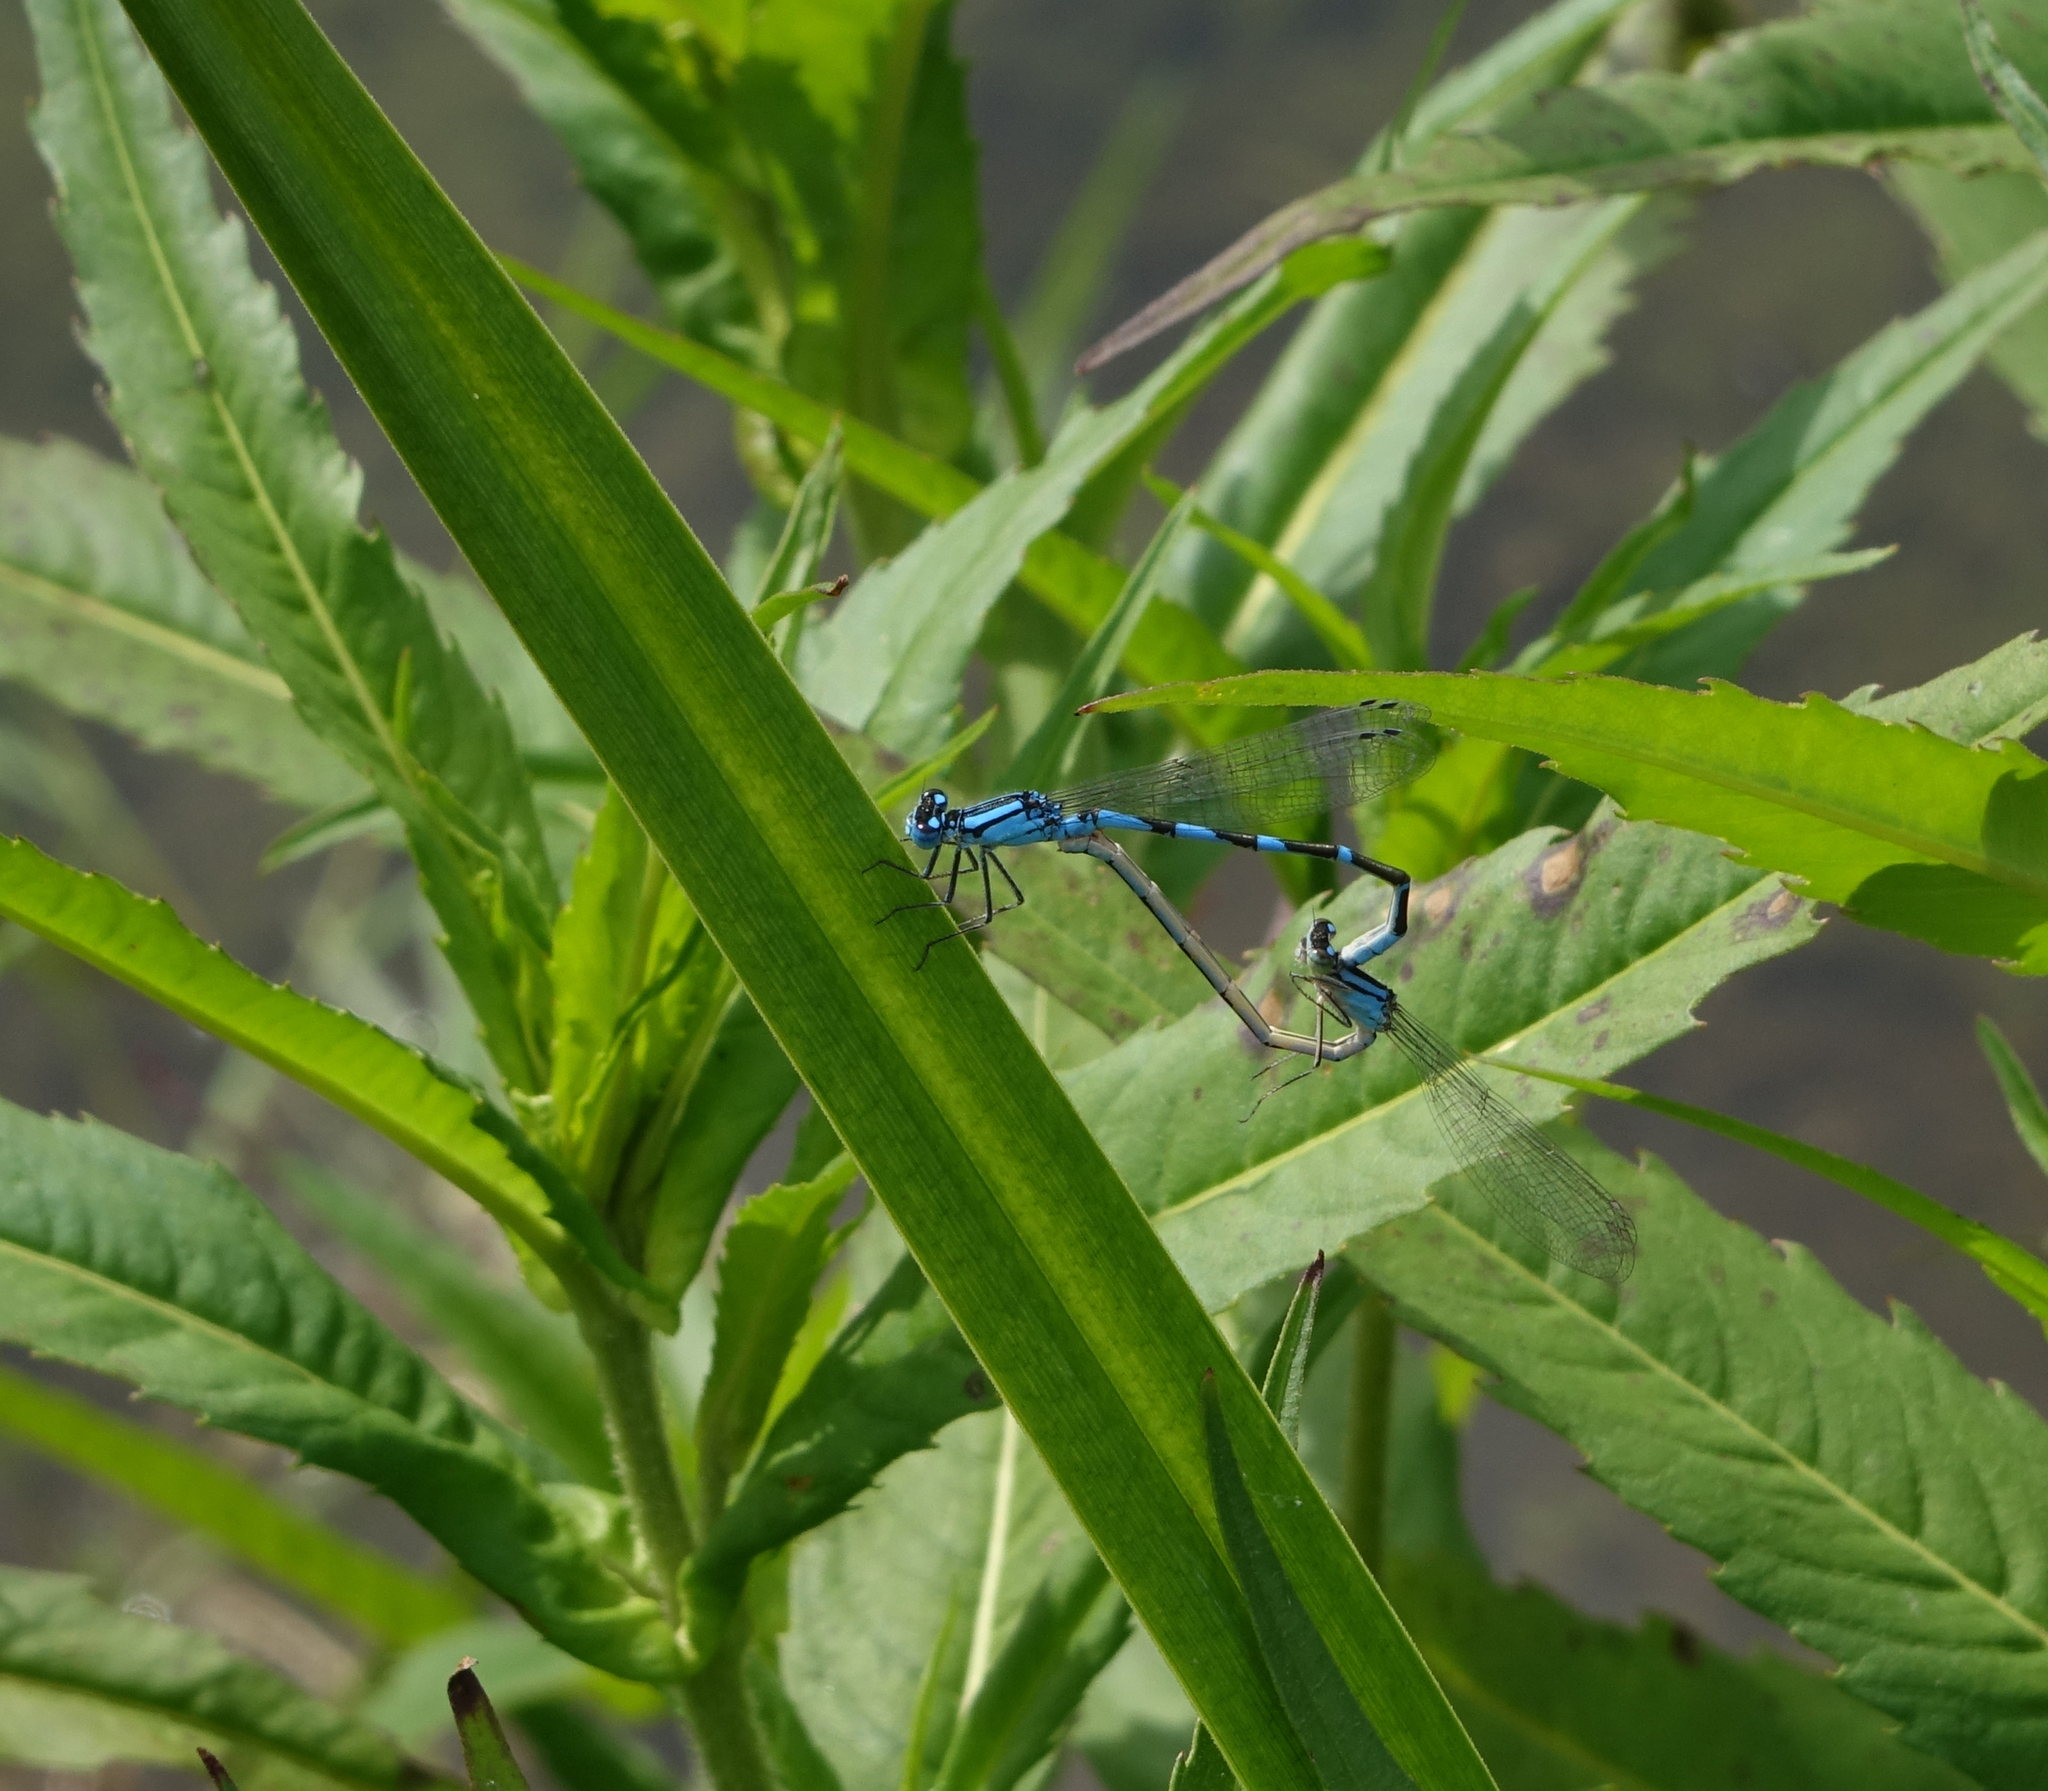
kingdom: Animalia
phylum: Arthropoda
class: Insecta
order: Odonata
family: Coenagrionidae
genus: Enallagma
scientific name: Enallagma cyathigerum
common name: Common blue damselfly
